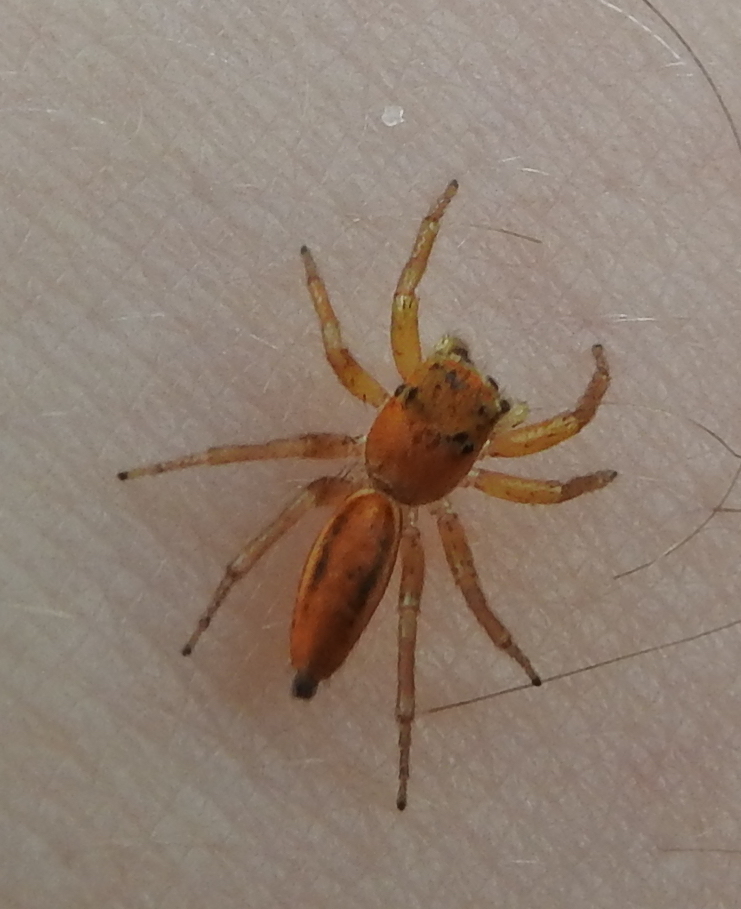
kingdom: Animalia
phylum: Arthropoda
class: Arachnida
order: Araneae
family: Salticidae
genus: Cosmophasis
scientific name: Cosmophasis lami
